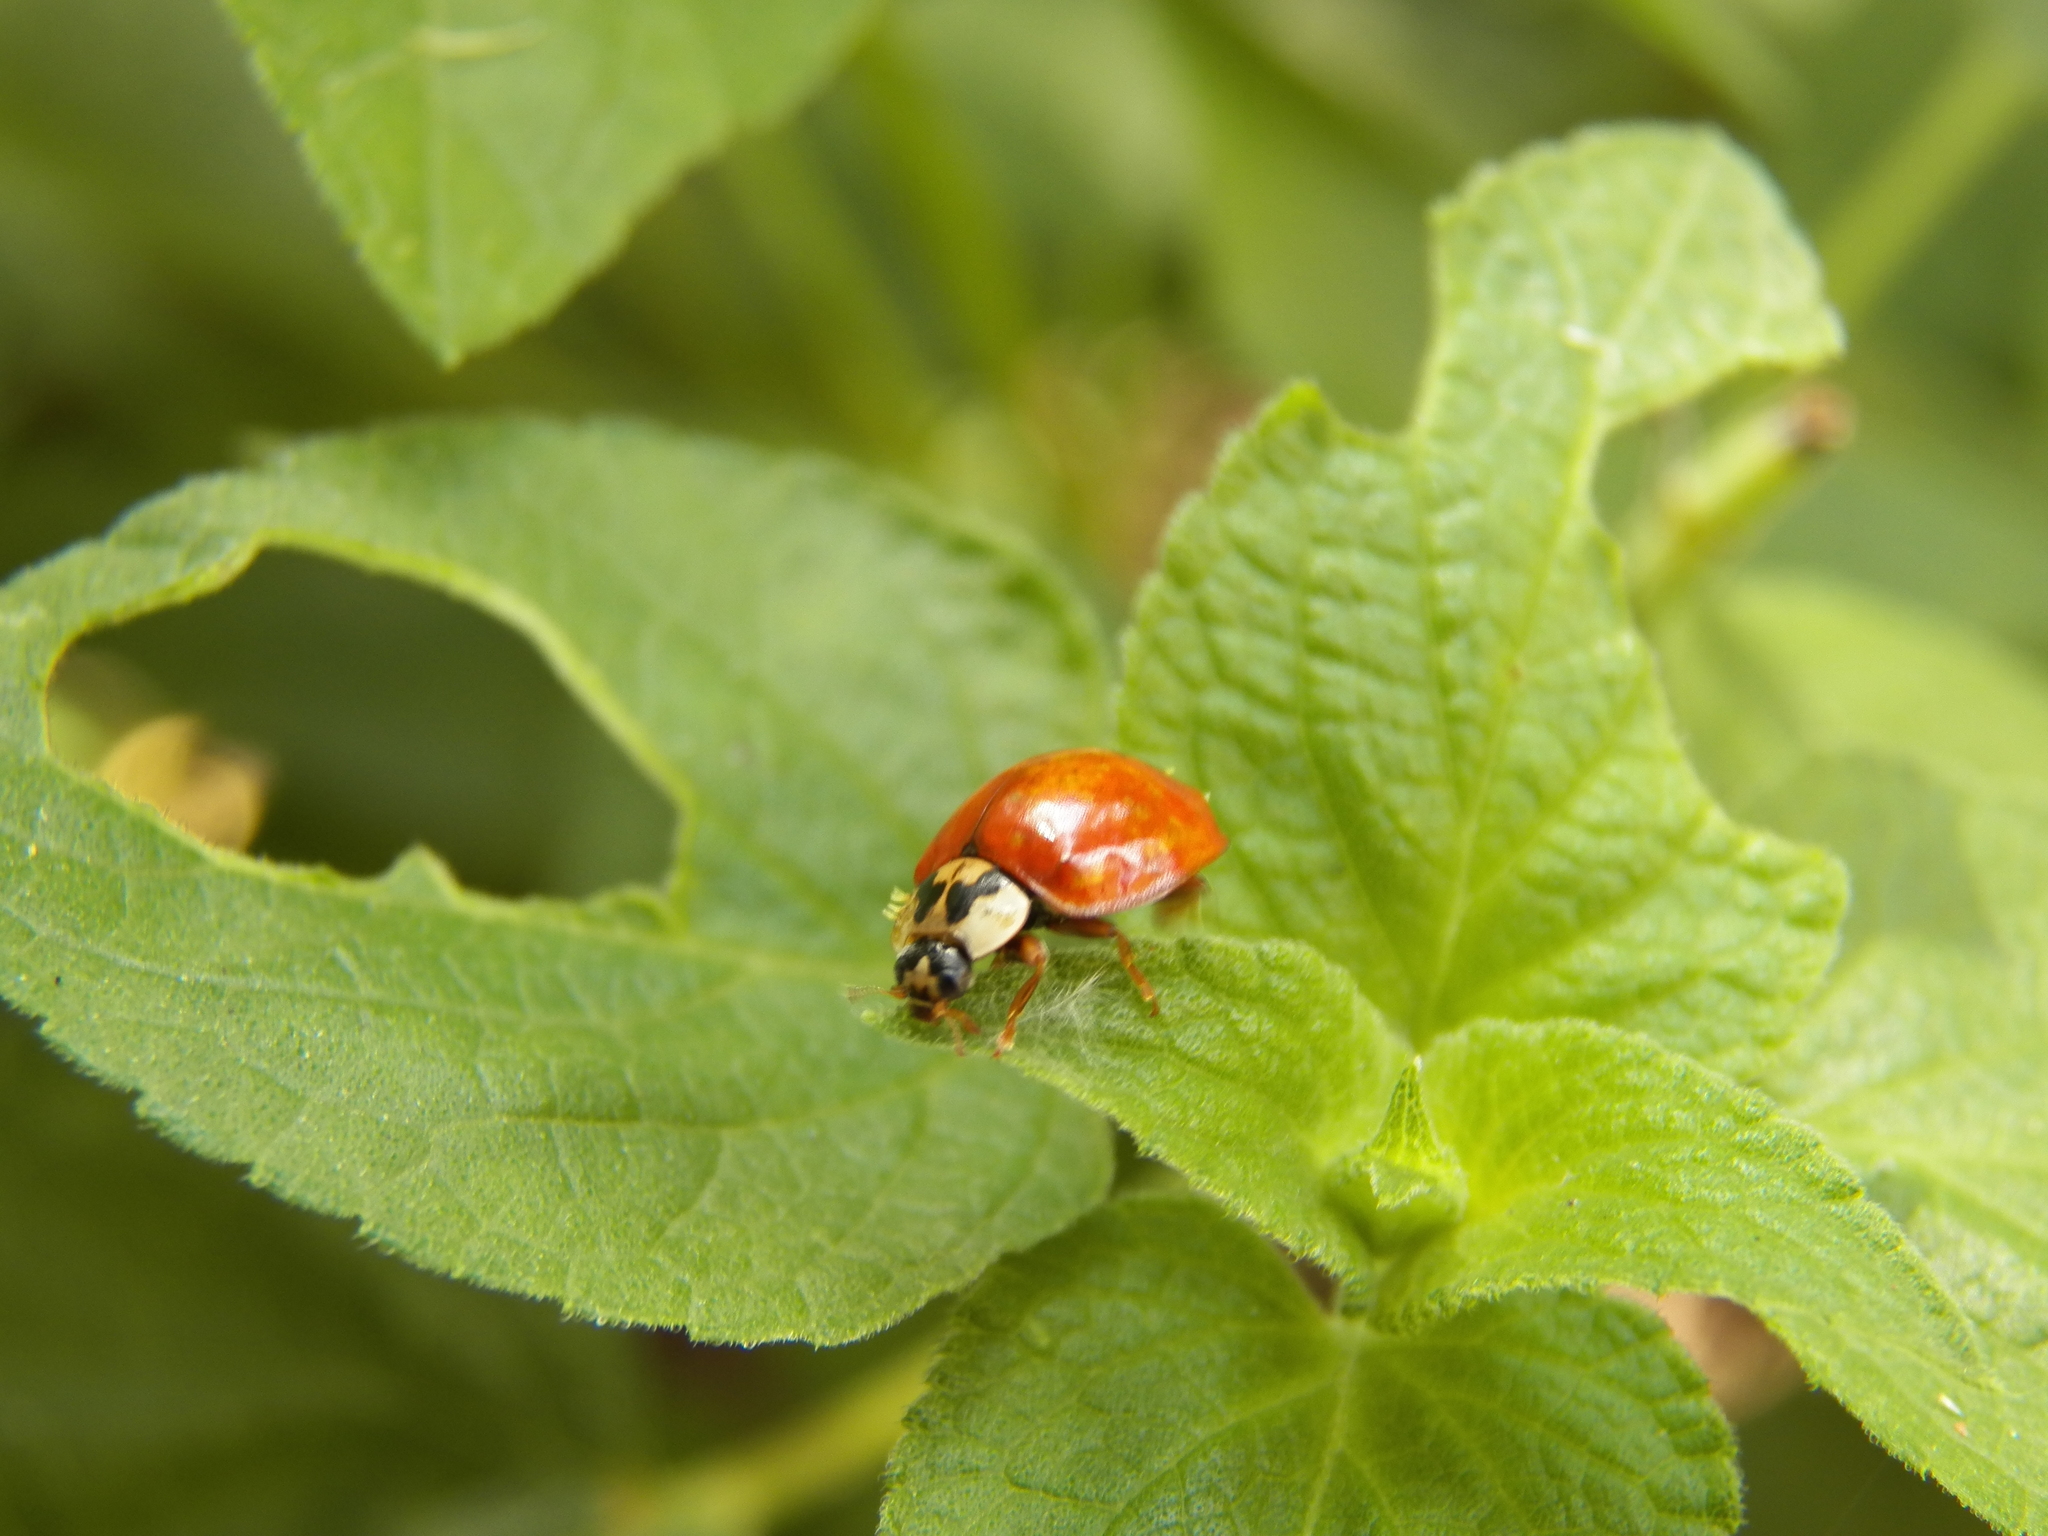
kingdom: Animalia
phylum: Arthropoda
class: Insecta
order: Coleoptera
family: Coccinellidae
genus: Harmonia
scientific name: Harmonia axyridis
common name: Harlequin ladybird
